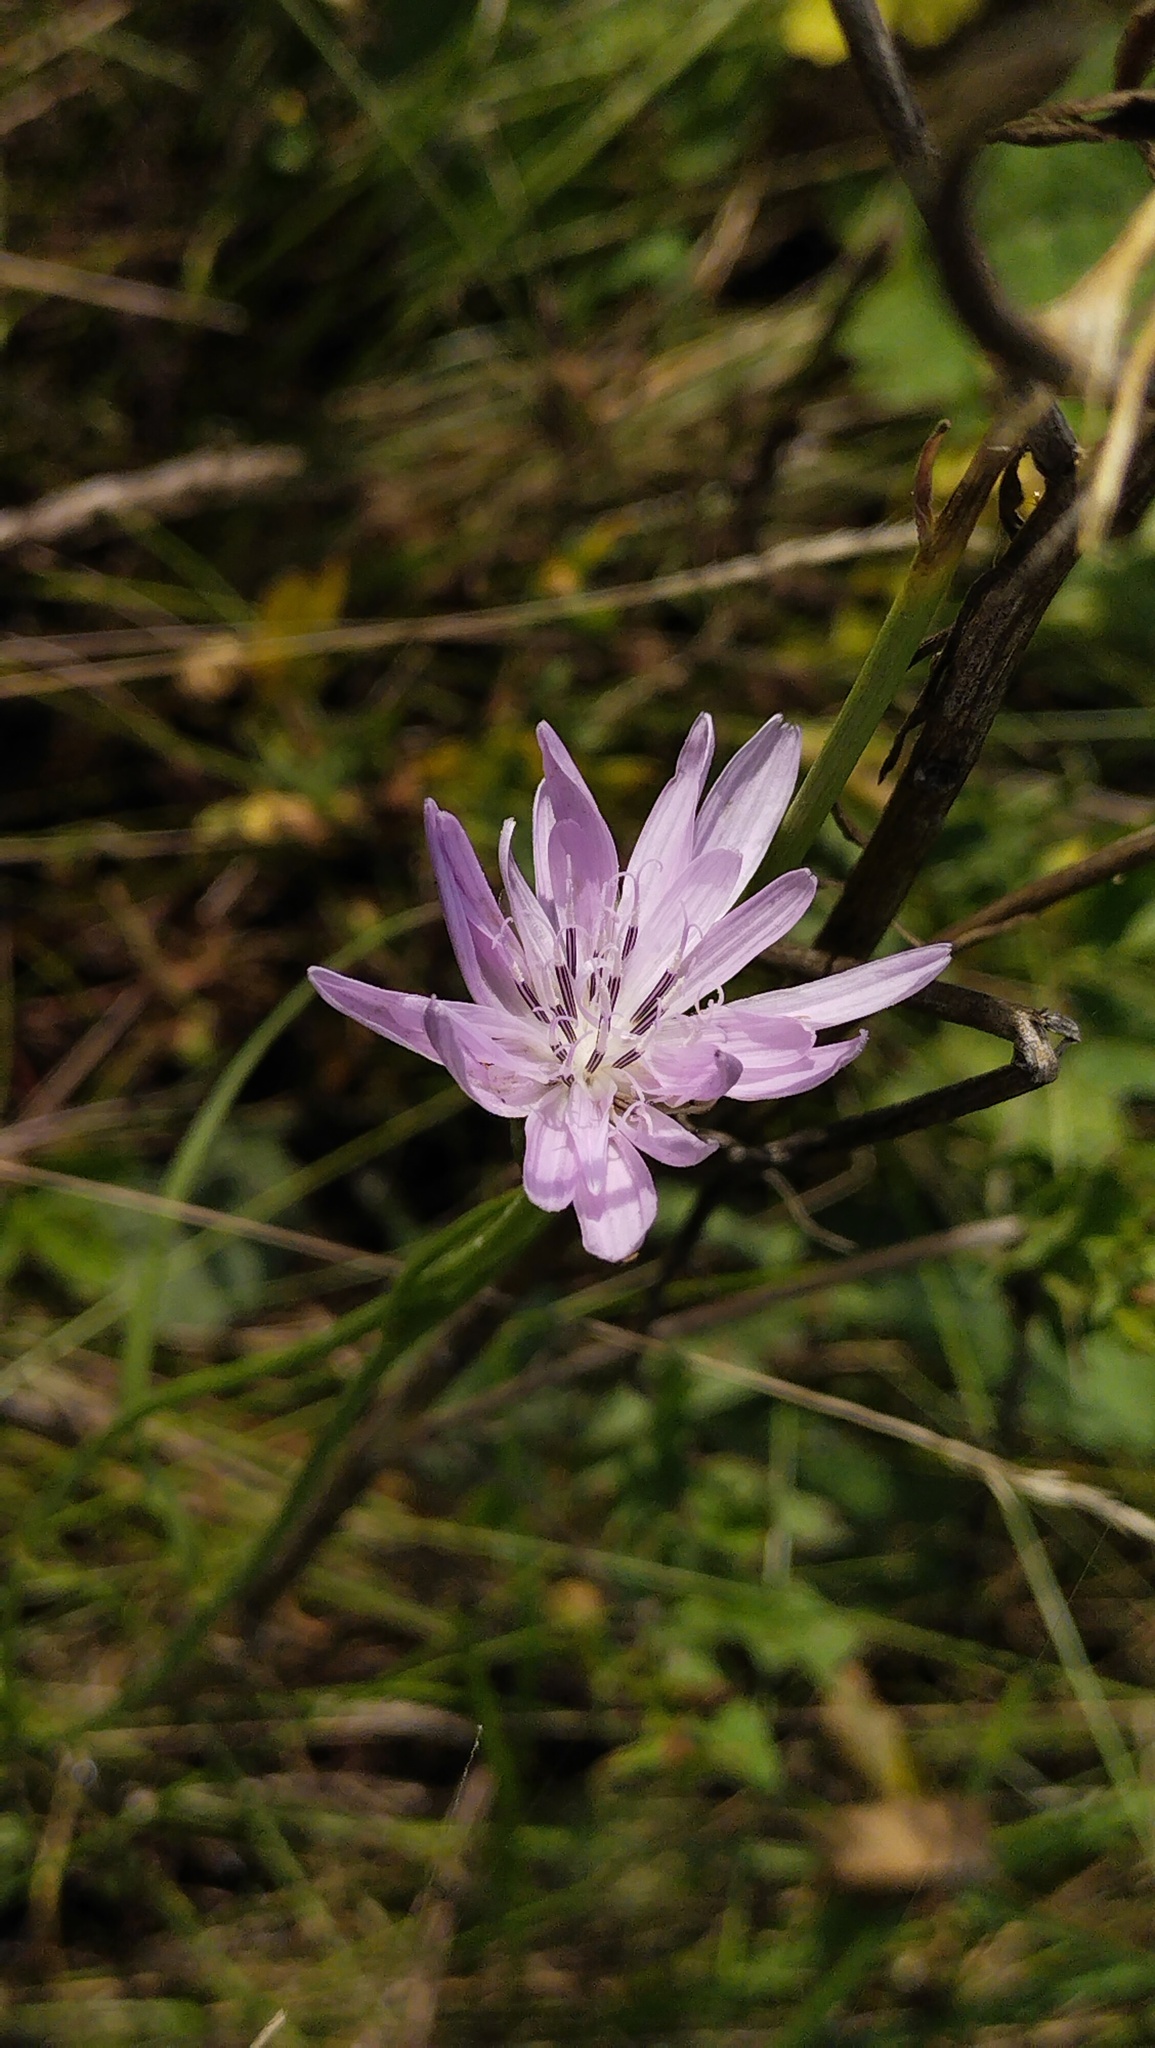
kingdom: Plantae
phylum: Tracheophyta
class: Magnoliopsida
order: Asterales
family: Asteraceae
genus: Scorzonera
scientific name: Scorzonera purpurea
